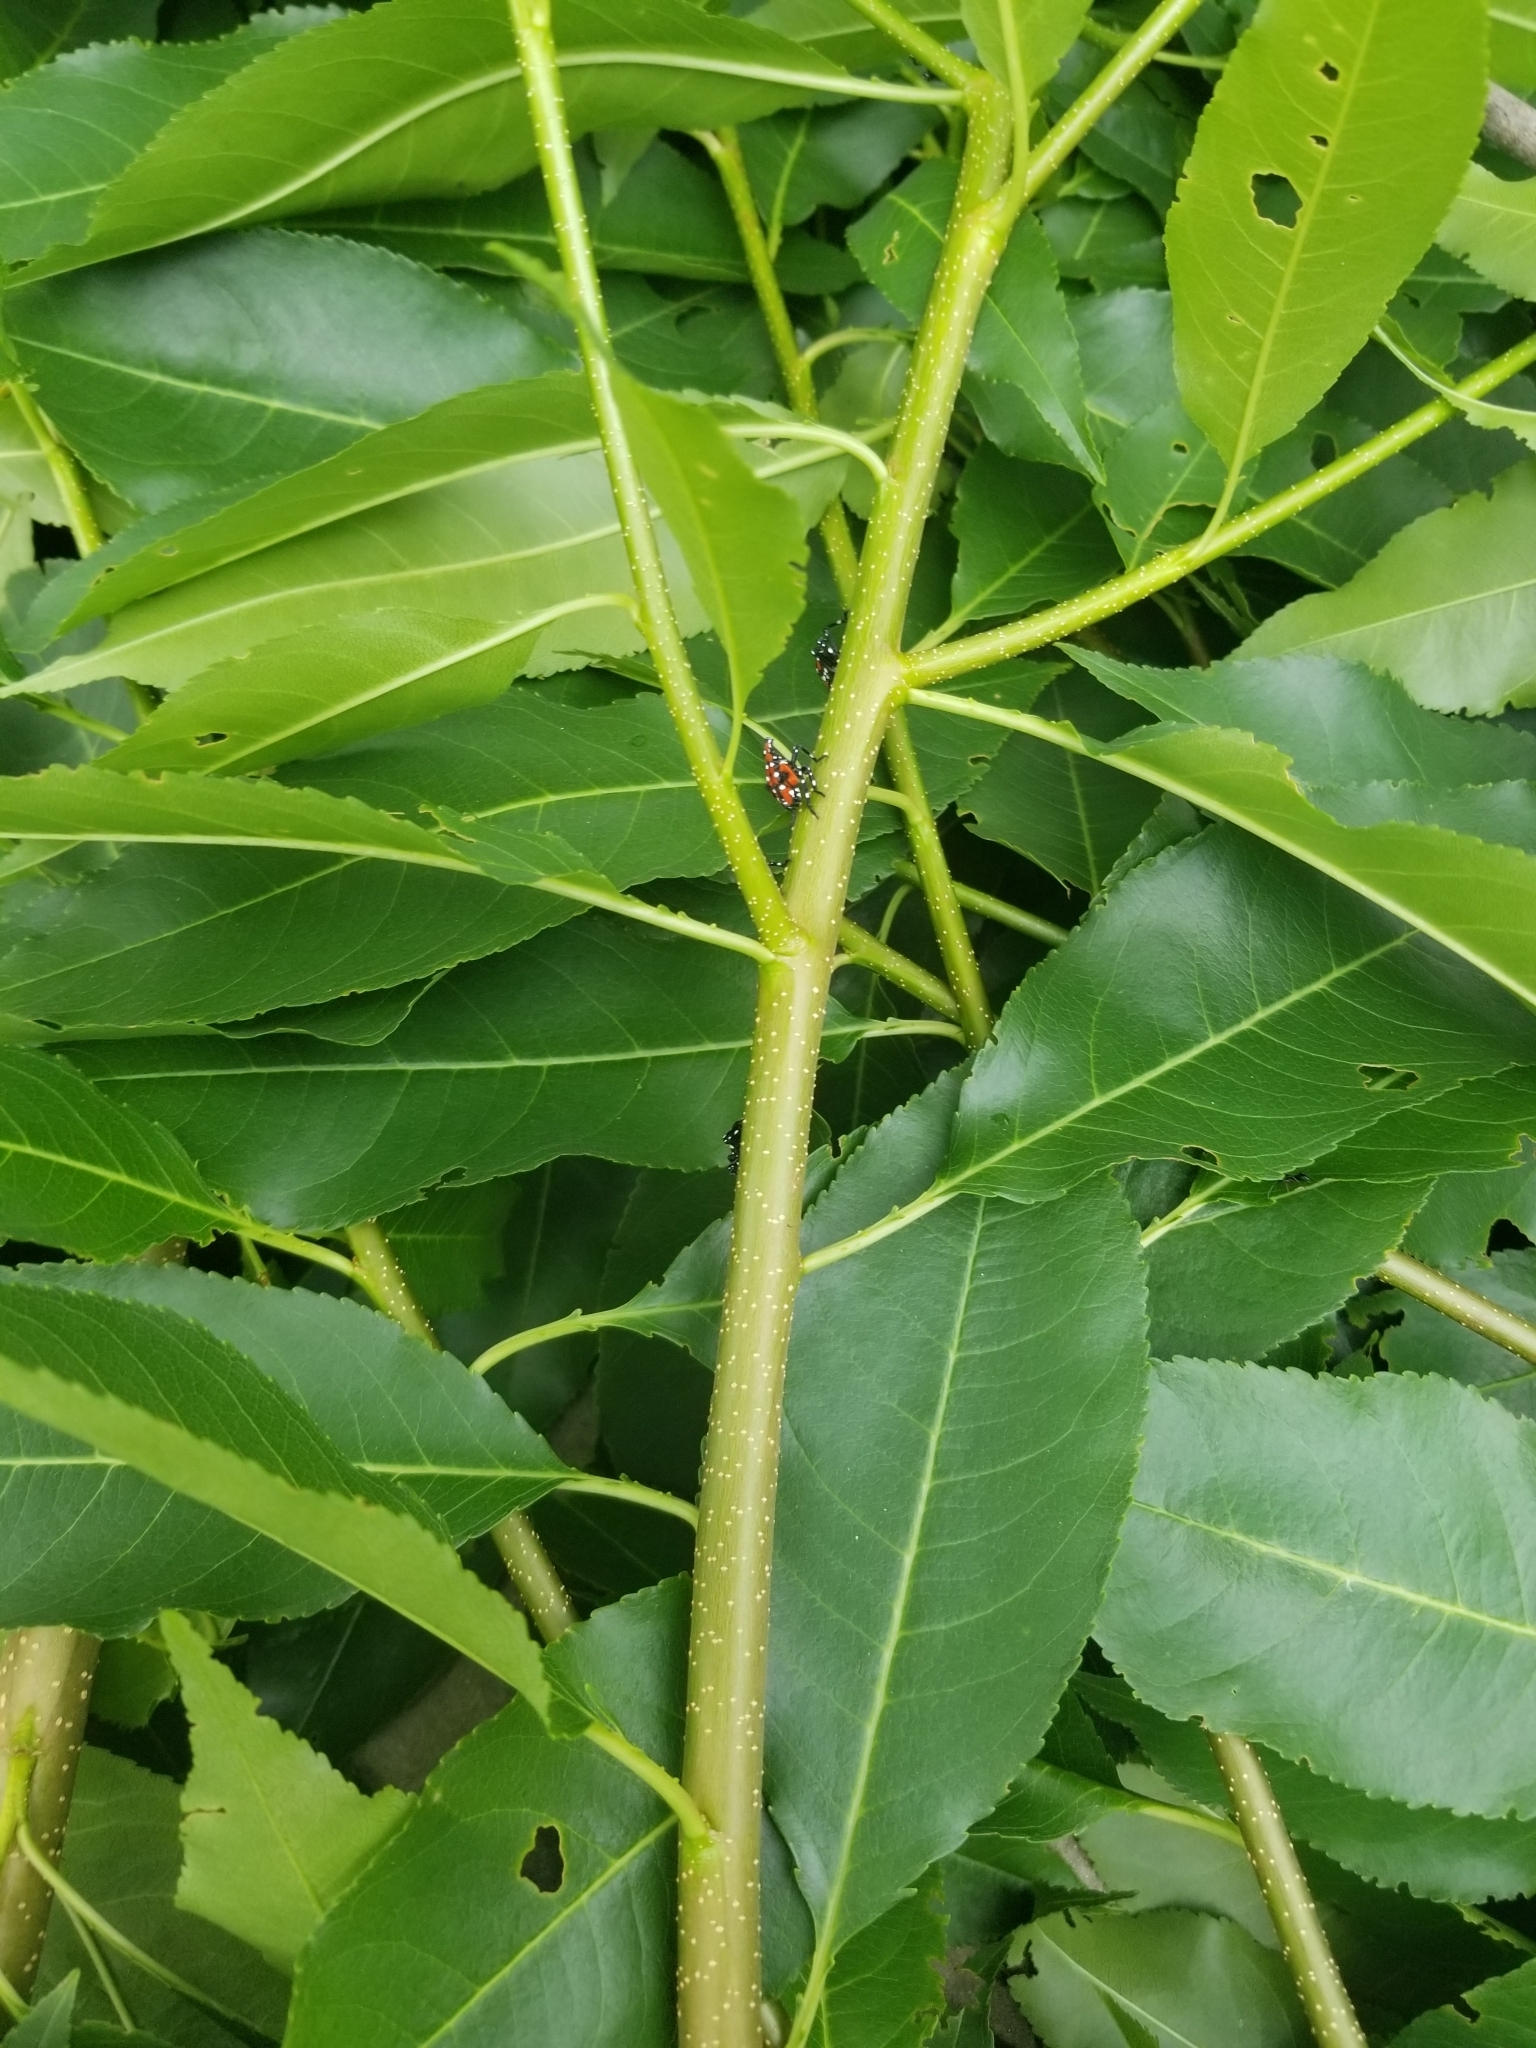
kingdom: Animalia
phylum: Arthropoda
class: Insecta
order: Hemiptera
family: Fulgoridae
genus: Lycorma
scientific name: Lycorma delicatula
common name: Spotted lanternfly
